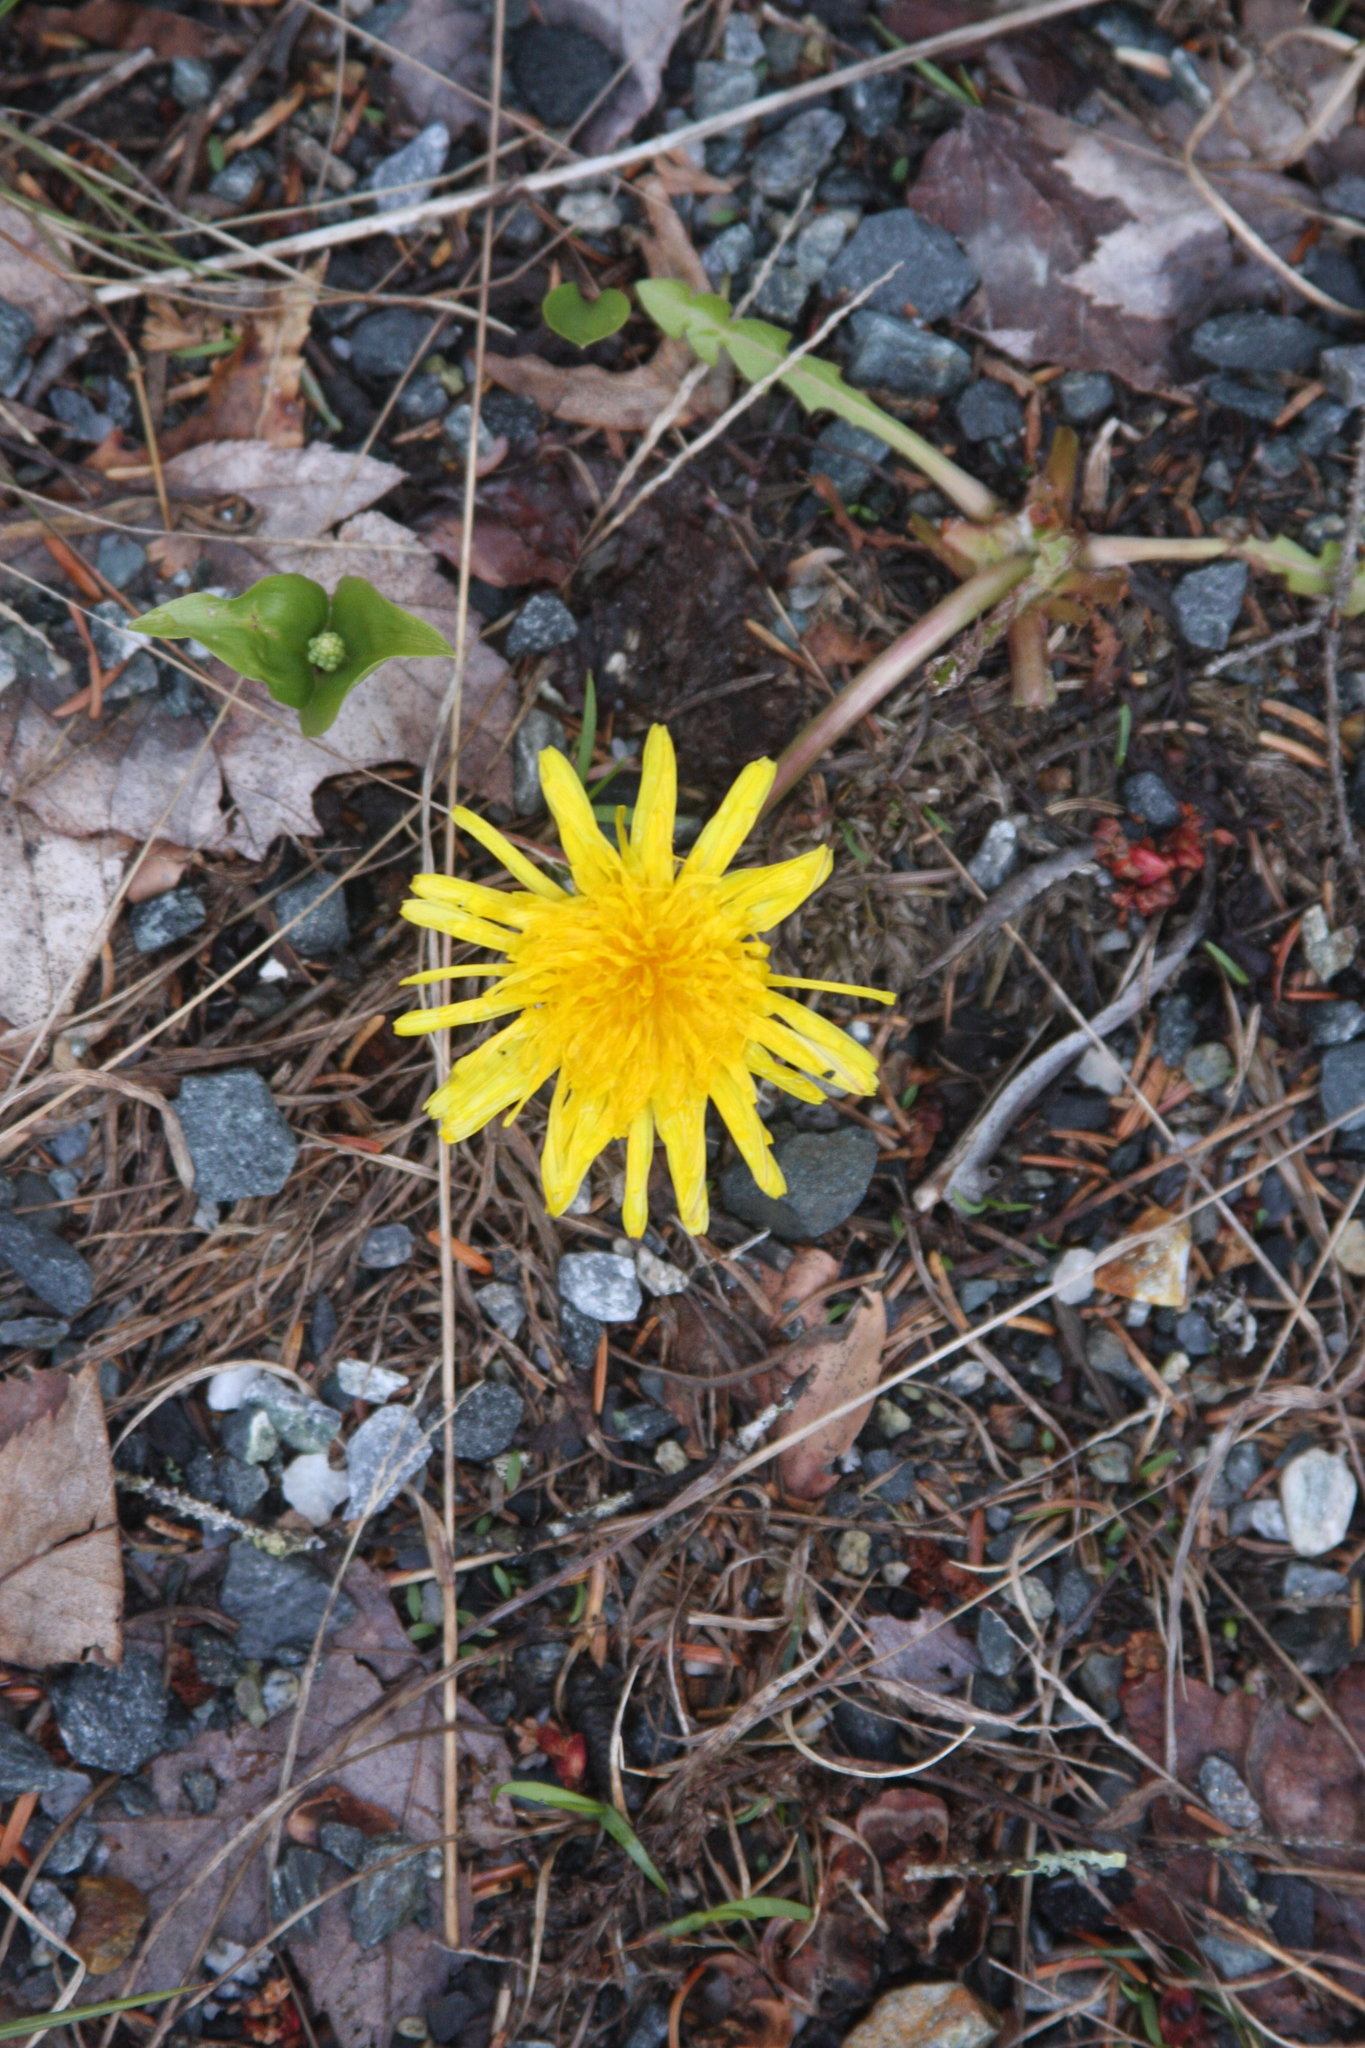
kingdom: Plantae
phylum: Tracheophyta
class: Magnoliopsida
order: Asterales
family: Asteraceae
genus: Taraxacum
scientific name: Taraxacum officinale
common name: Common dandelion
